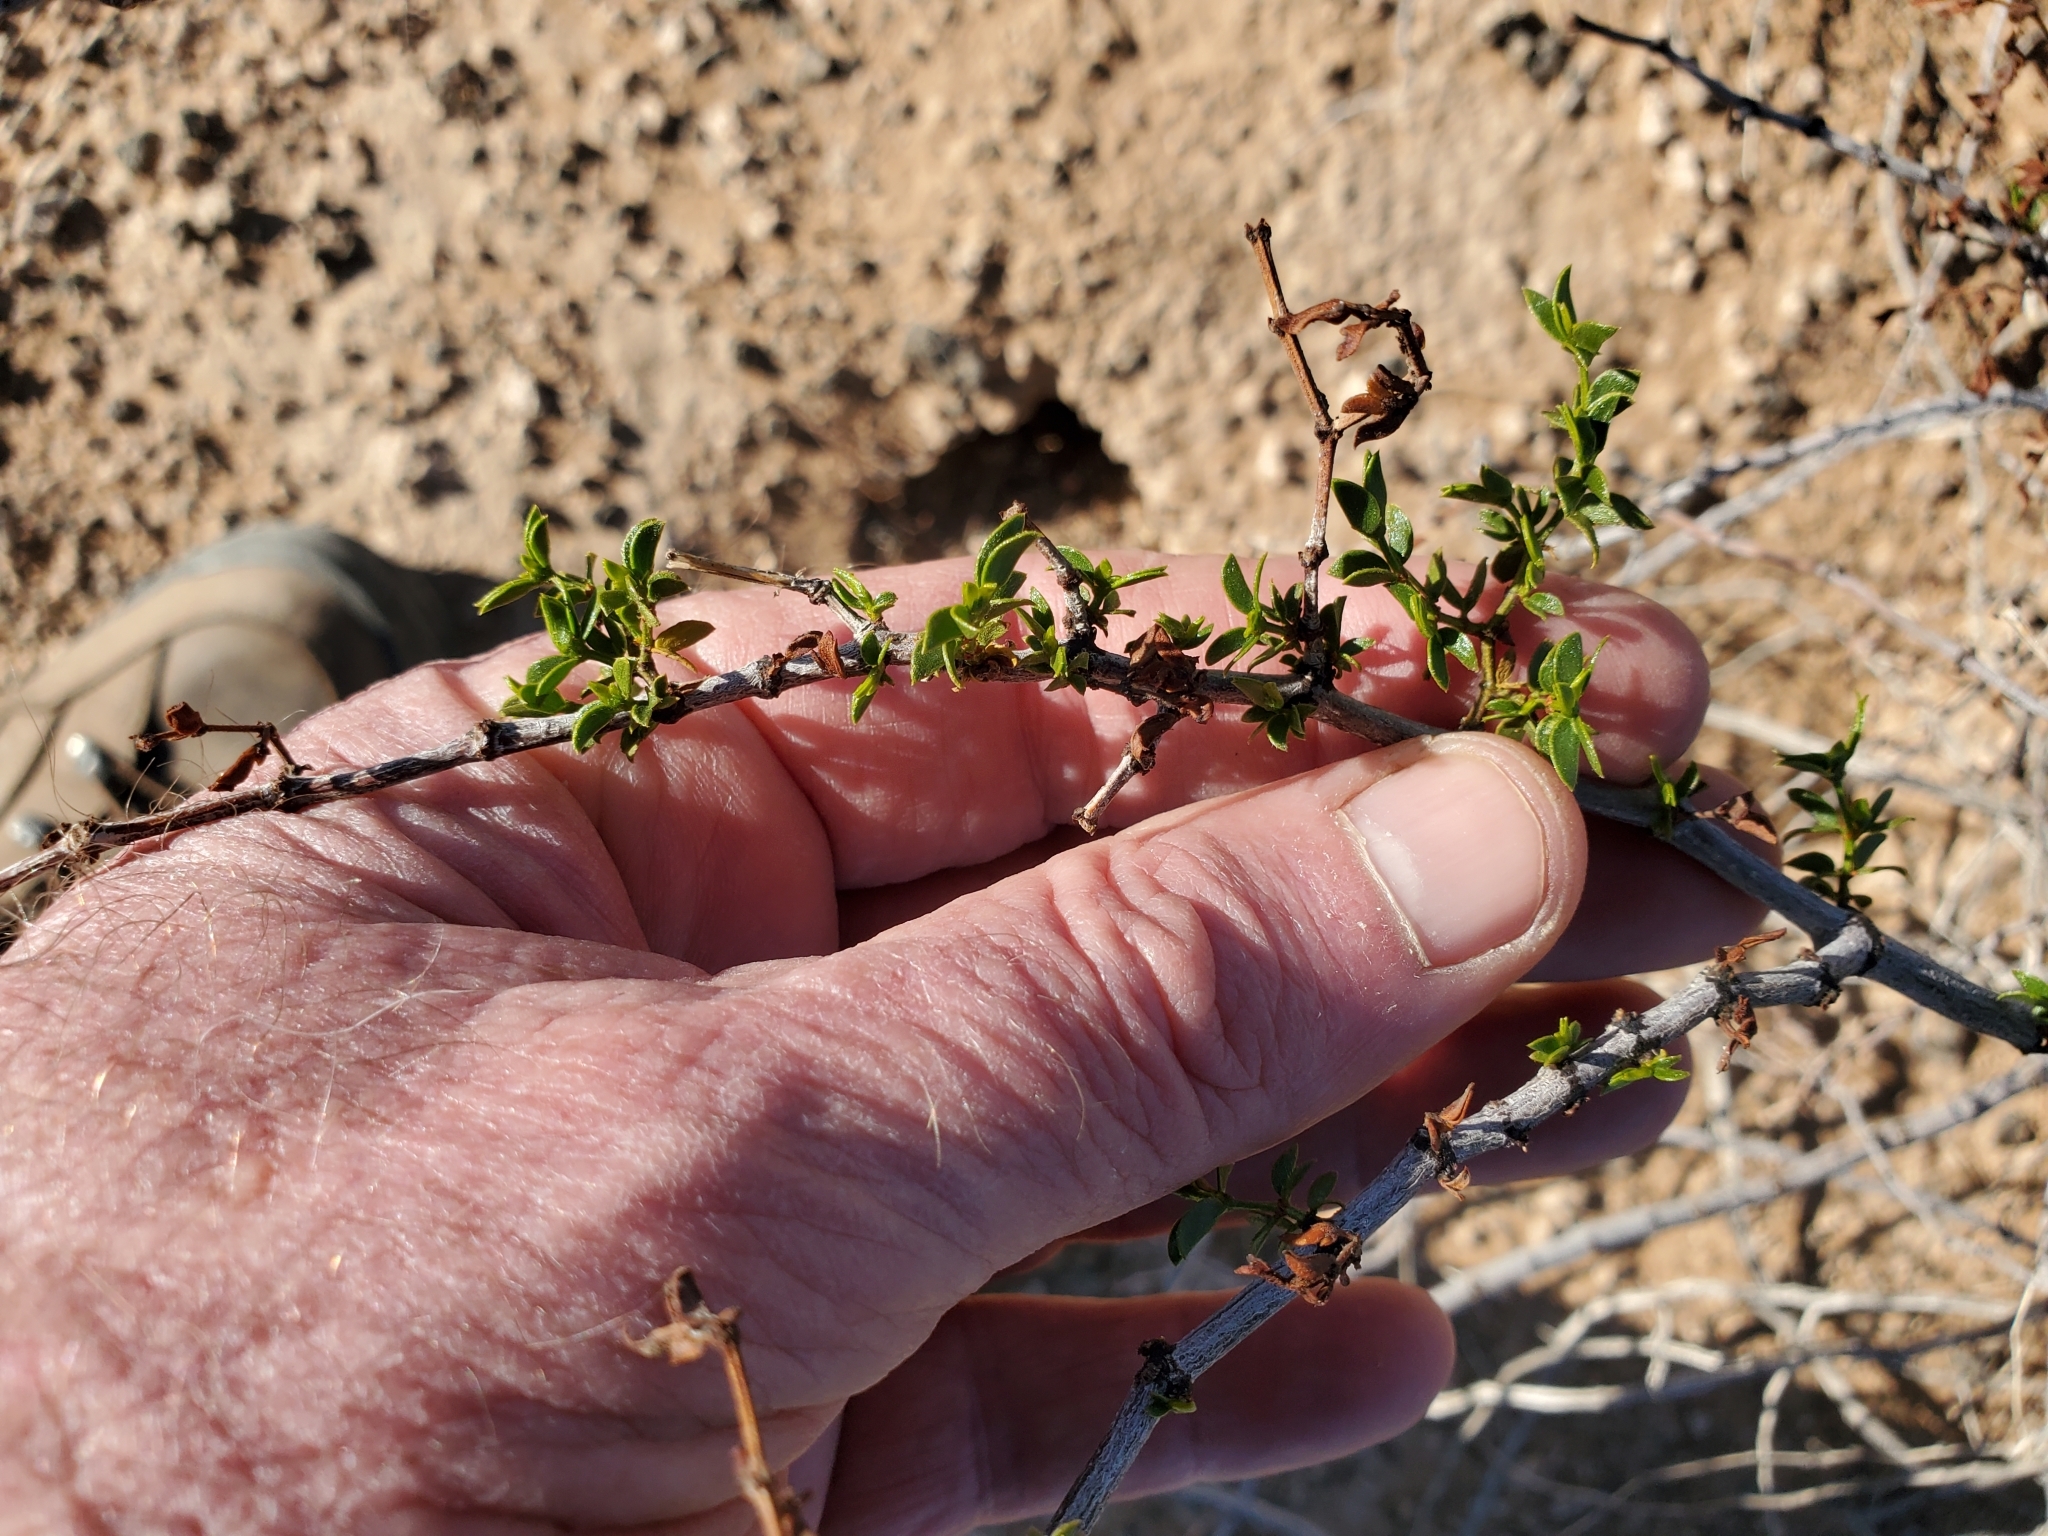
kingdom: Plantae
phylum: Tracheophyta
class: Magnoliopsida
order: Zygophyllales
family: Zygophyllaceae
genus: Larrea
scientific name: Larrea tridentata
